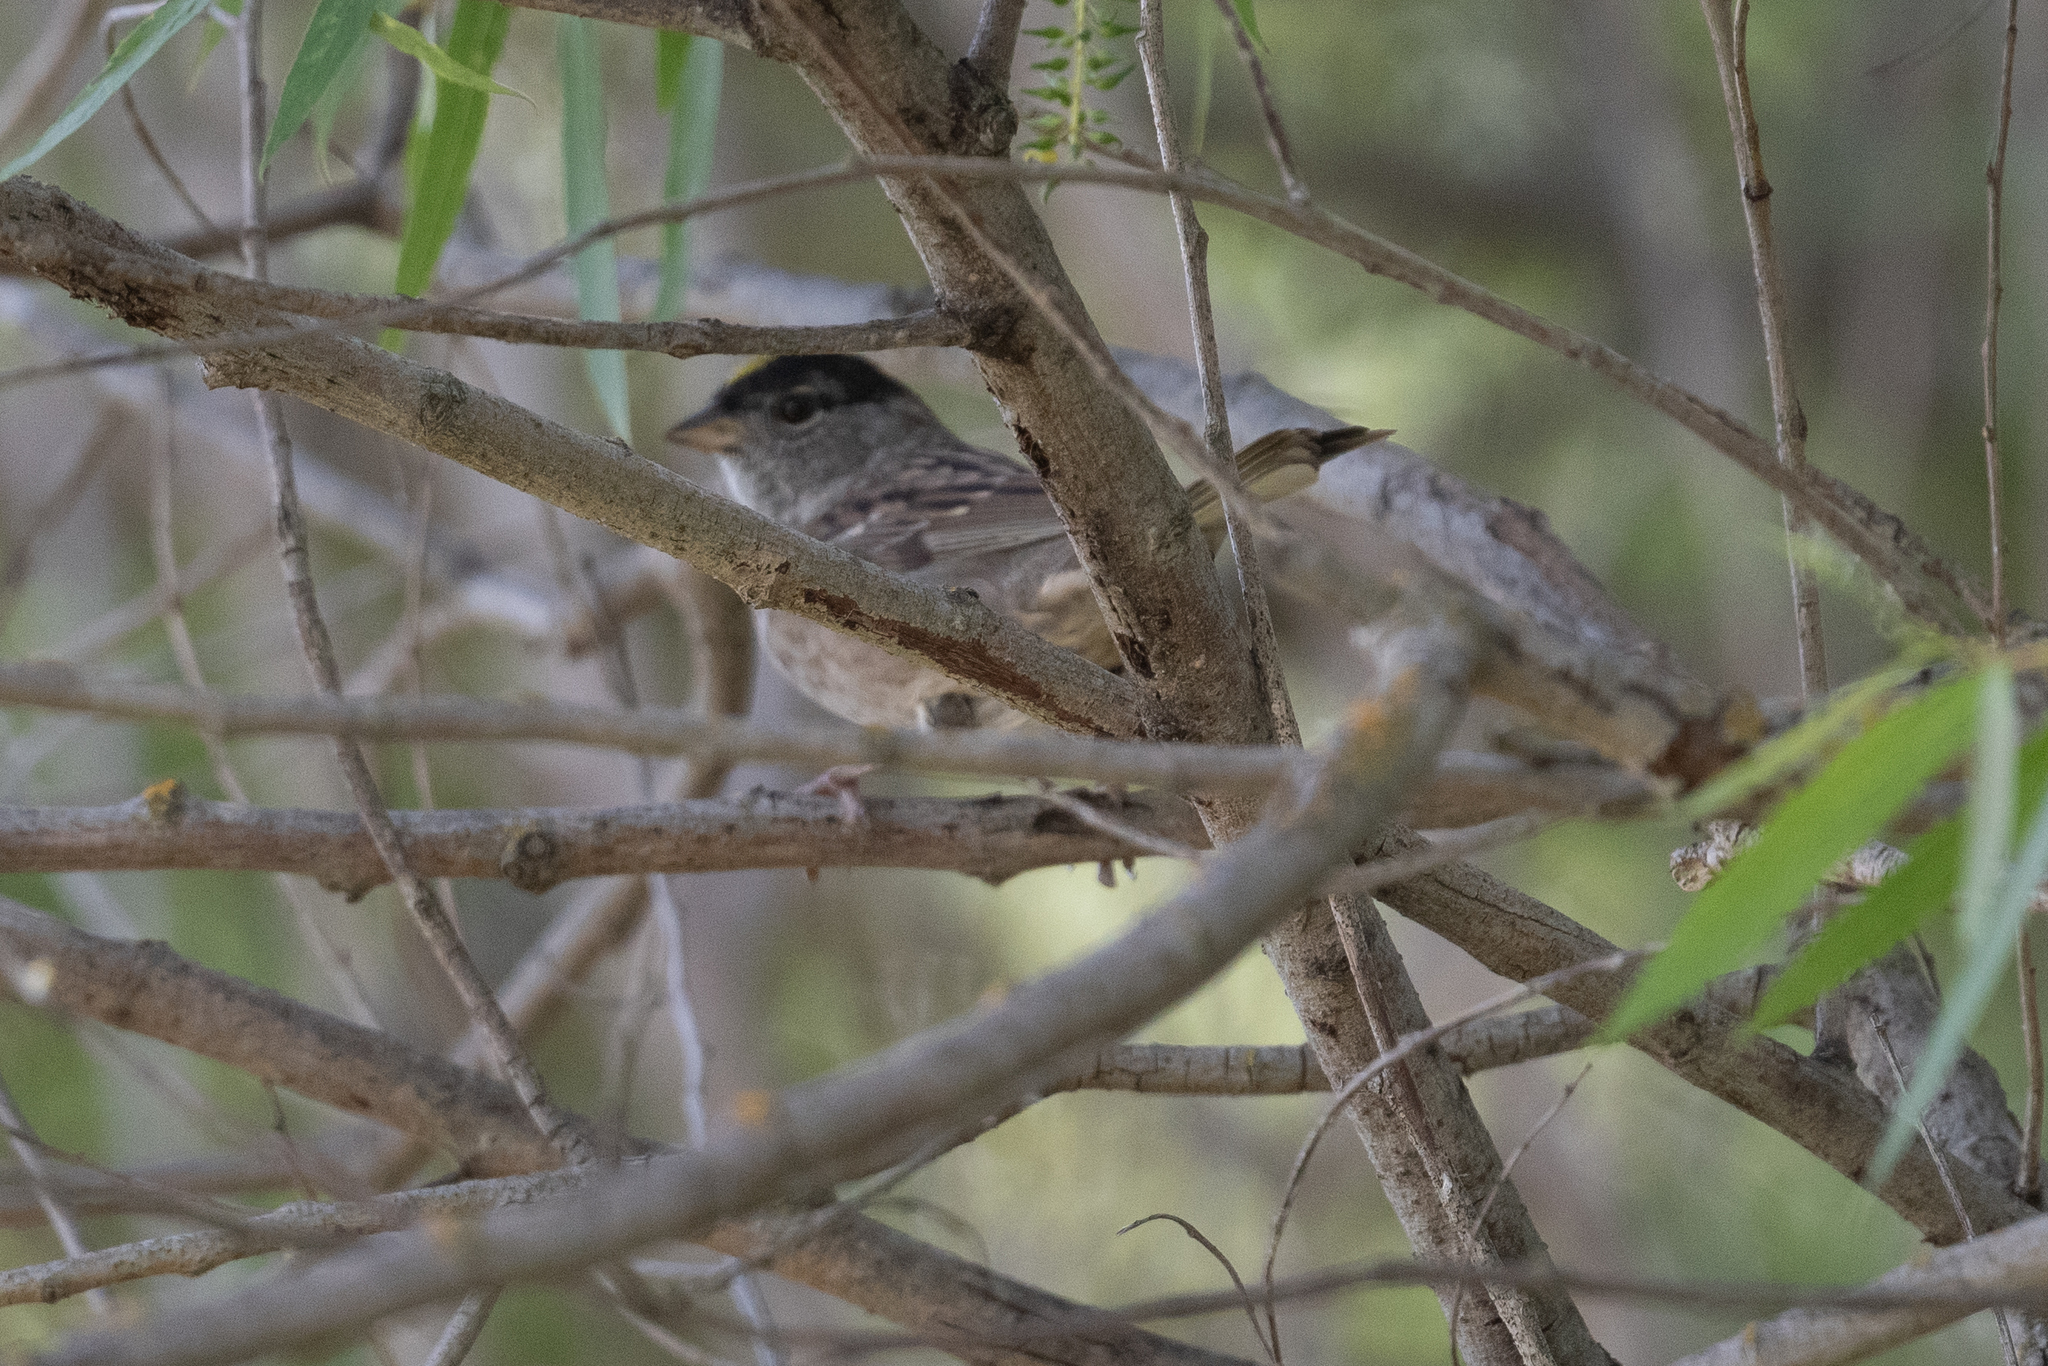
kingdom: Animalia
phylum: Chordata
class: Aves
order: Passeriformes
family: Passerellidae
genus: Zonotrichia
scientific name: Zonotrichia atricapilla
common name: Golden-crowned sparrow
